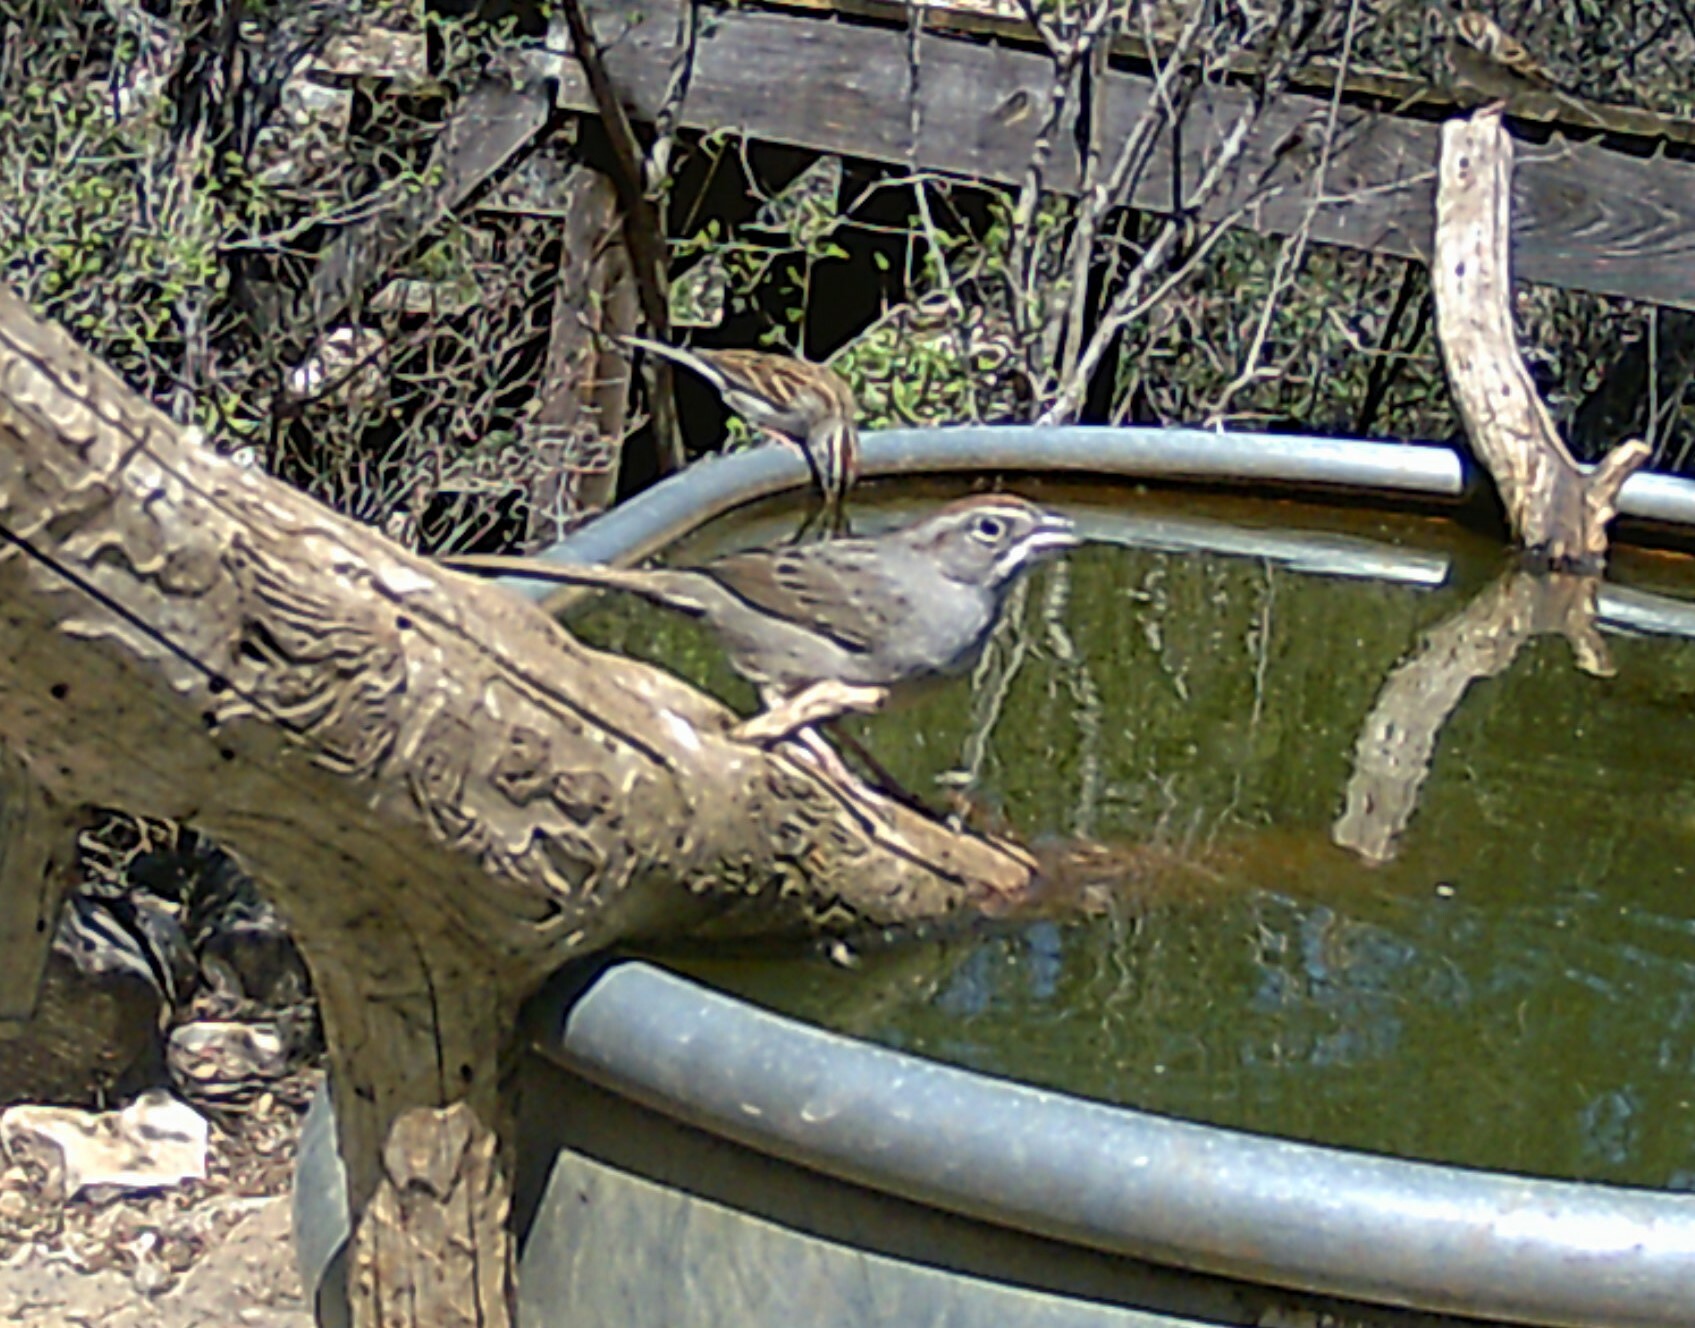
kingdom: Animalia
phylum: Chordata
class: Aves
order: Passeriformes
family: Passerellidae
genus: Aimophila
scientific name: Aimophila ruficeps
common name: Rufous-crowned sparrow
